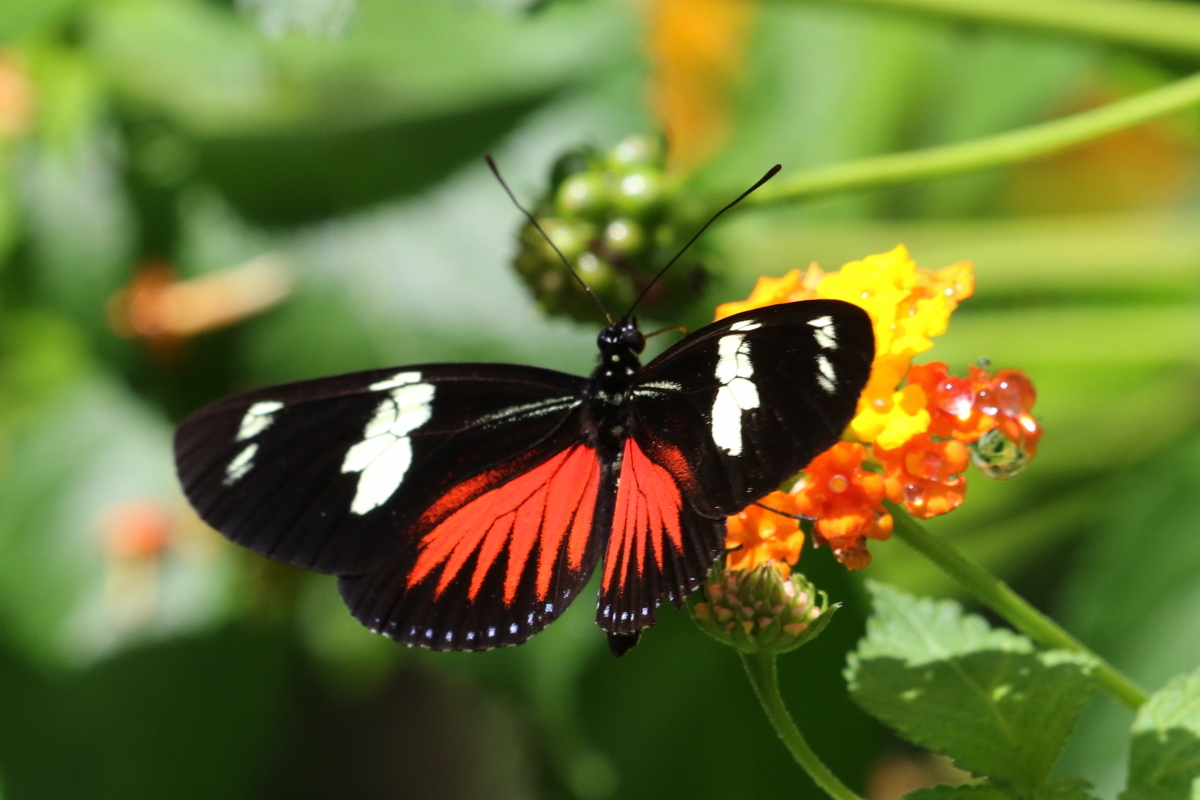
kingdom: Animalia
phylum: Arthropoda
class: Insecta
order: Lepidoptera
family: Nymphalidae
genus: Heliconius
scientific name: Heliconius doris
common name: Doris longwing
